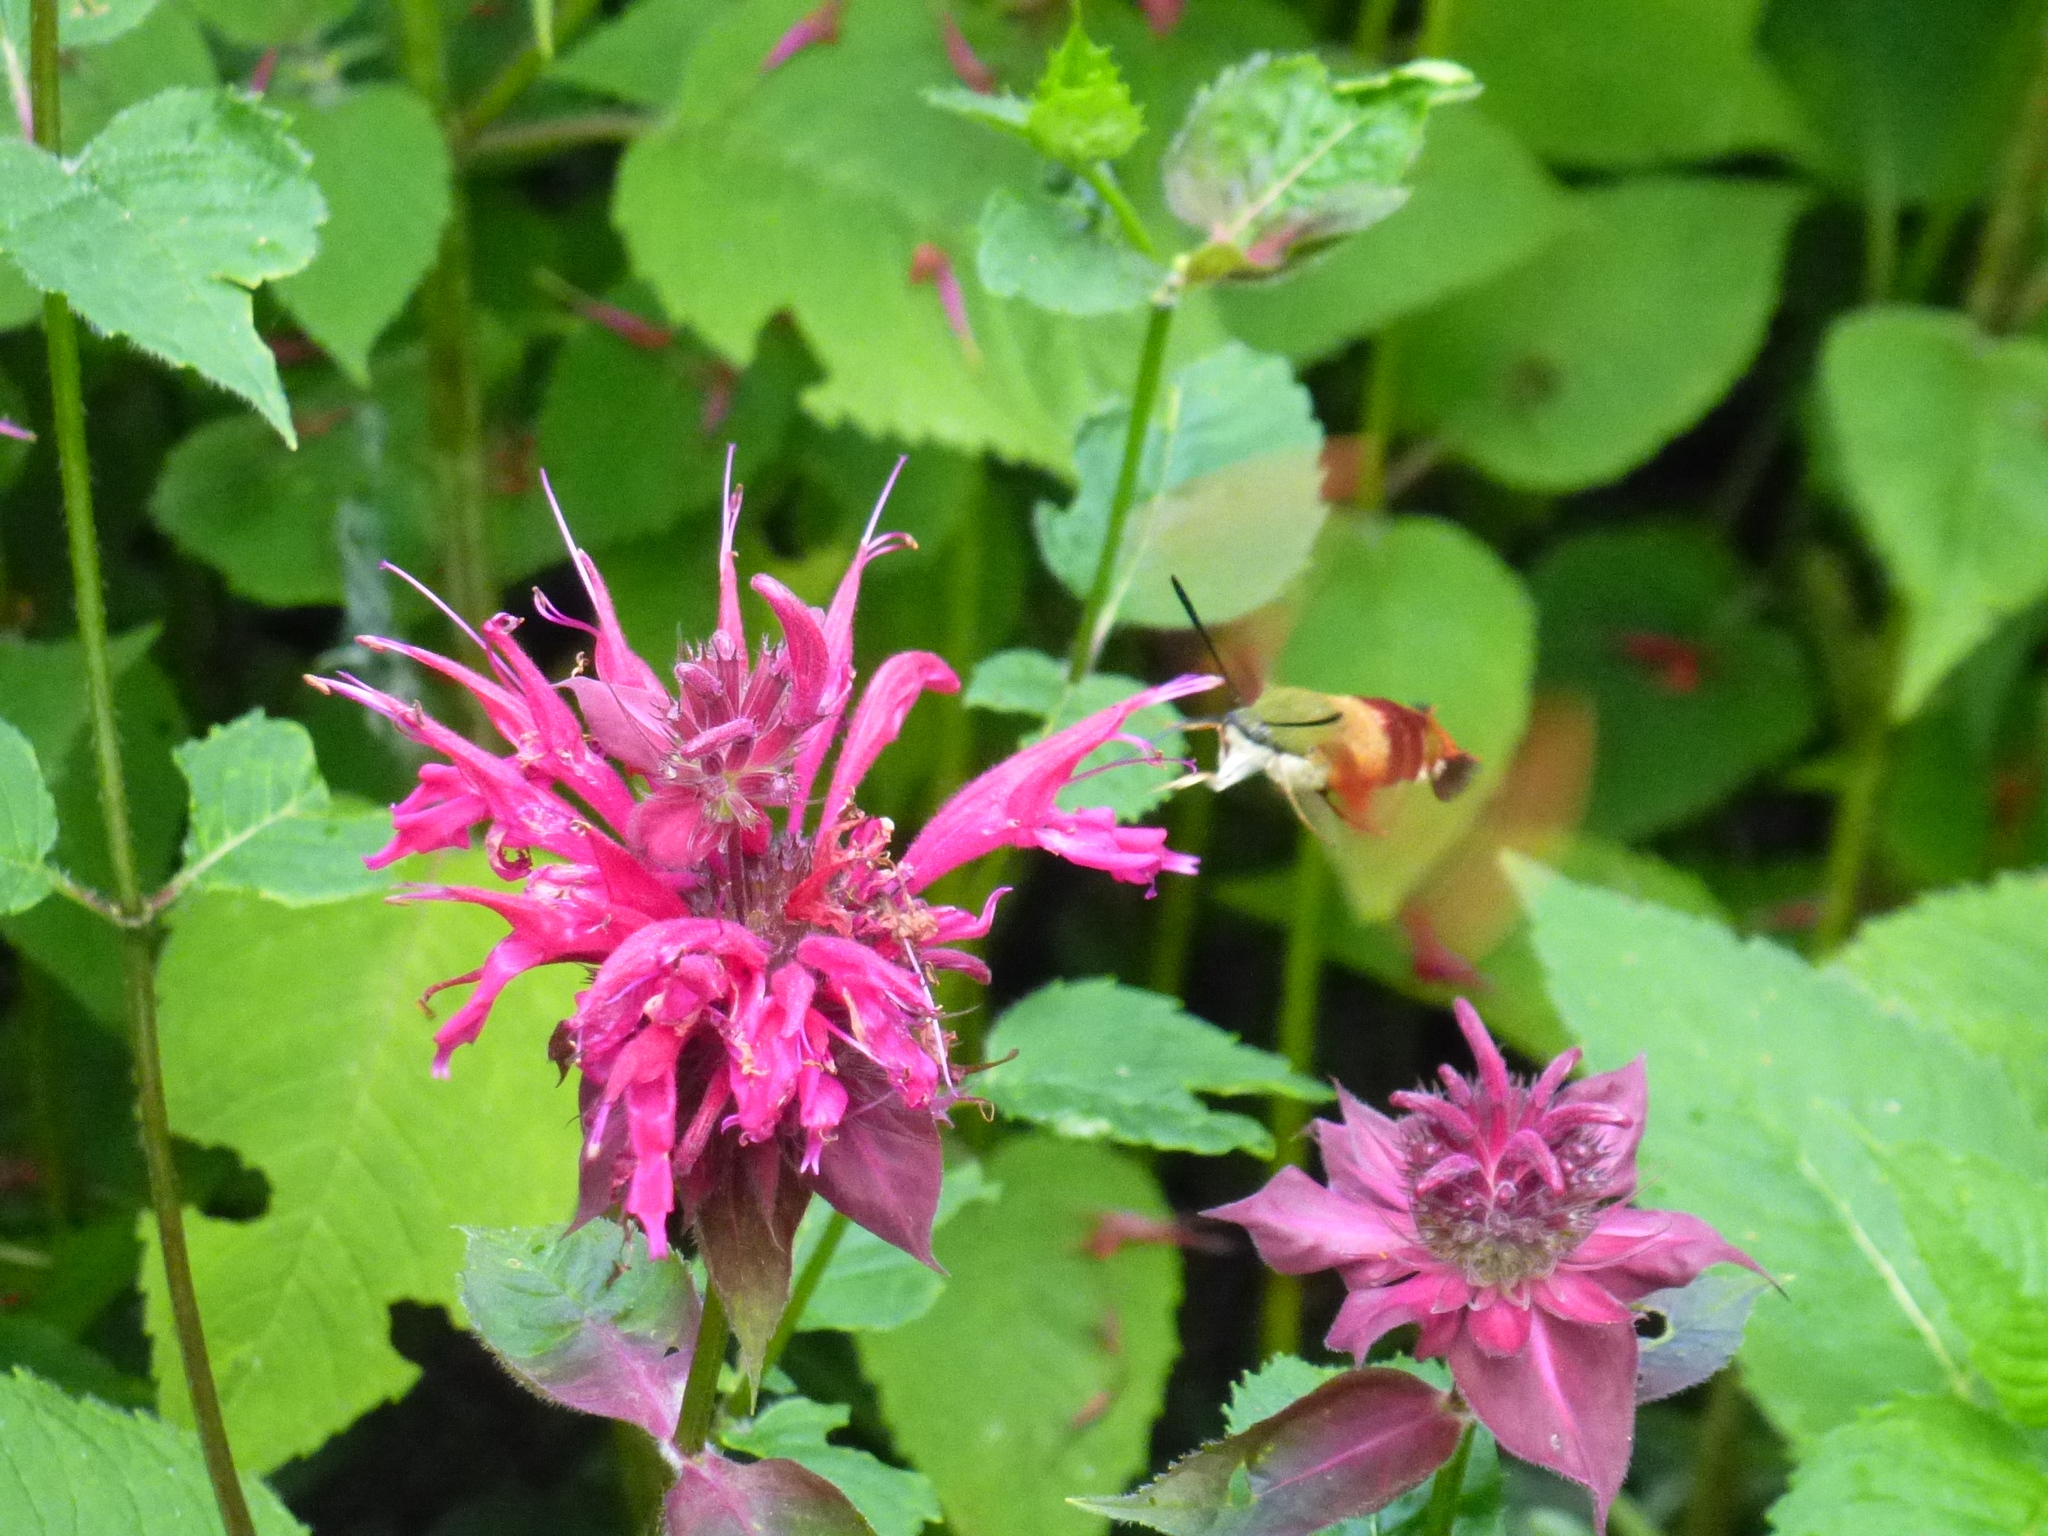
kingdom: Animalia
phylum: Arthropoda
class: Insecta
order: Lepidoptera
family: Sphingidae
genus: Hemaris
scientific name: Hemaris thysbe
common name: Common clear-wing
